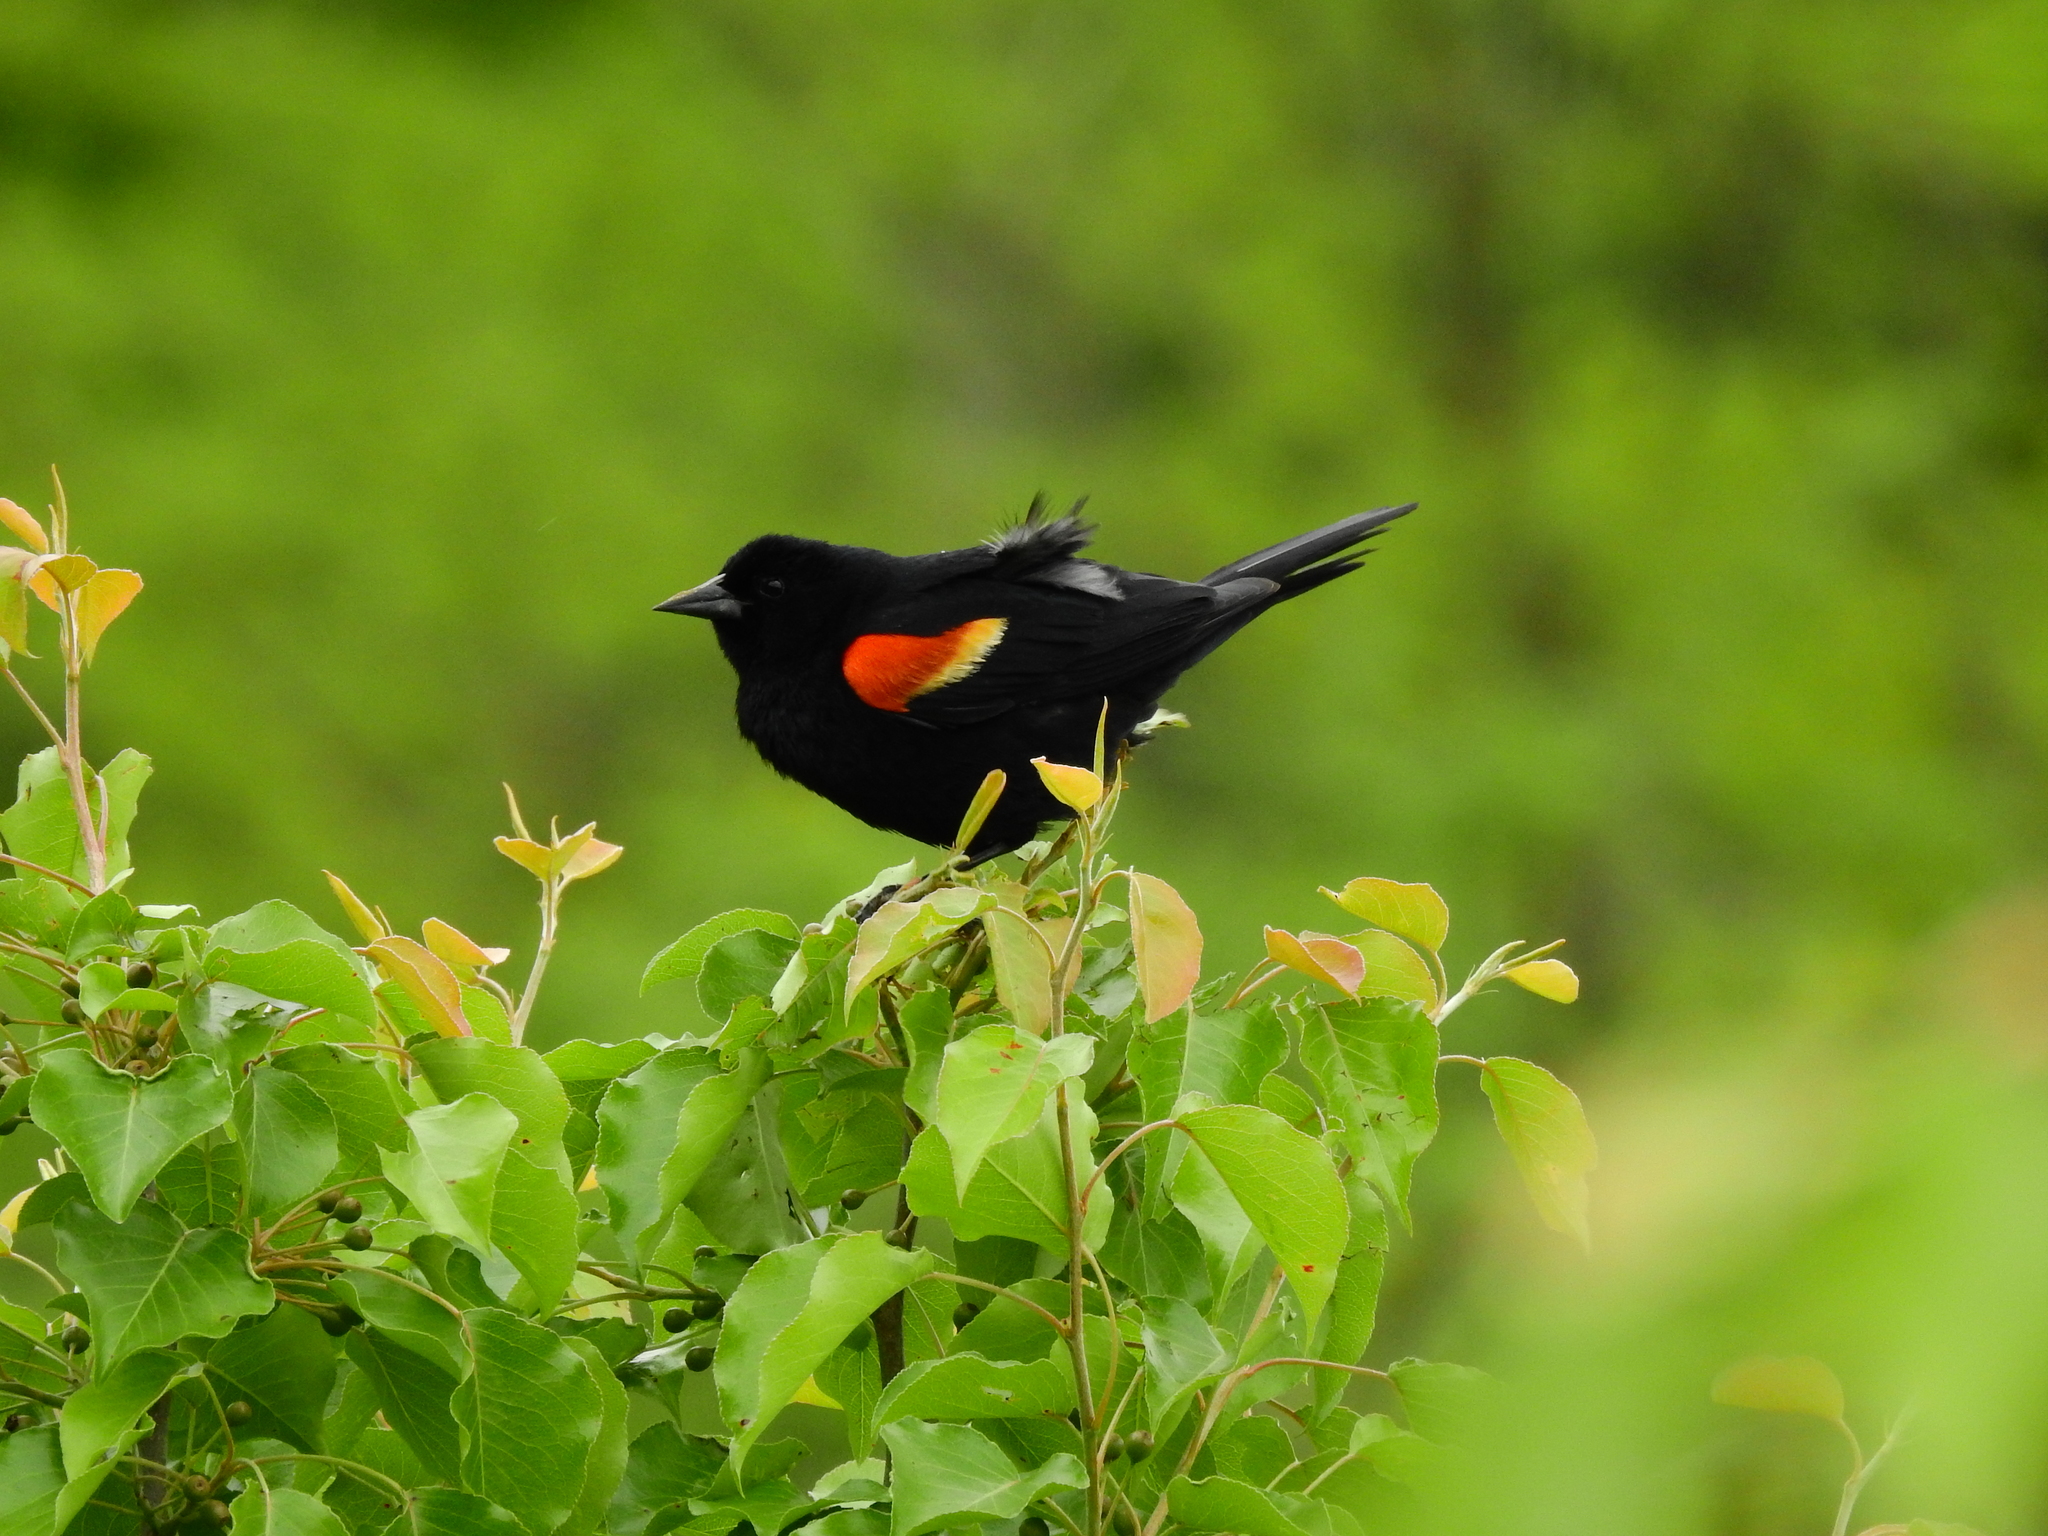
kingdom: Animalia
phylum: Chordata
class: Aves
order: Passeriformes
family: Icteridae
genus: Agelaius
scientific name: Agelaius phoeniceus
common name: Red-winged blackbird
